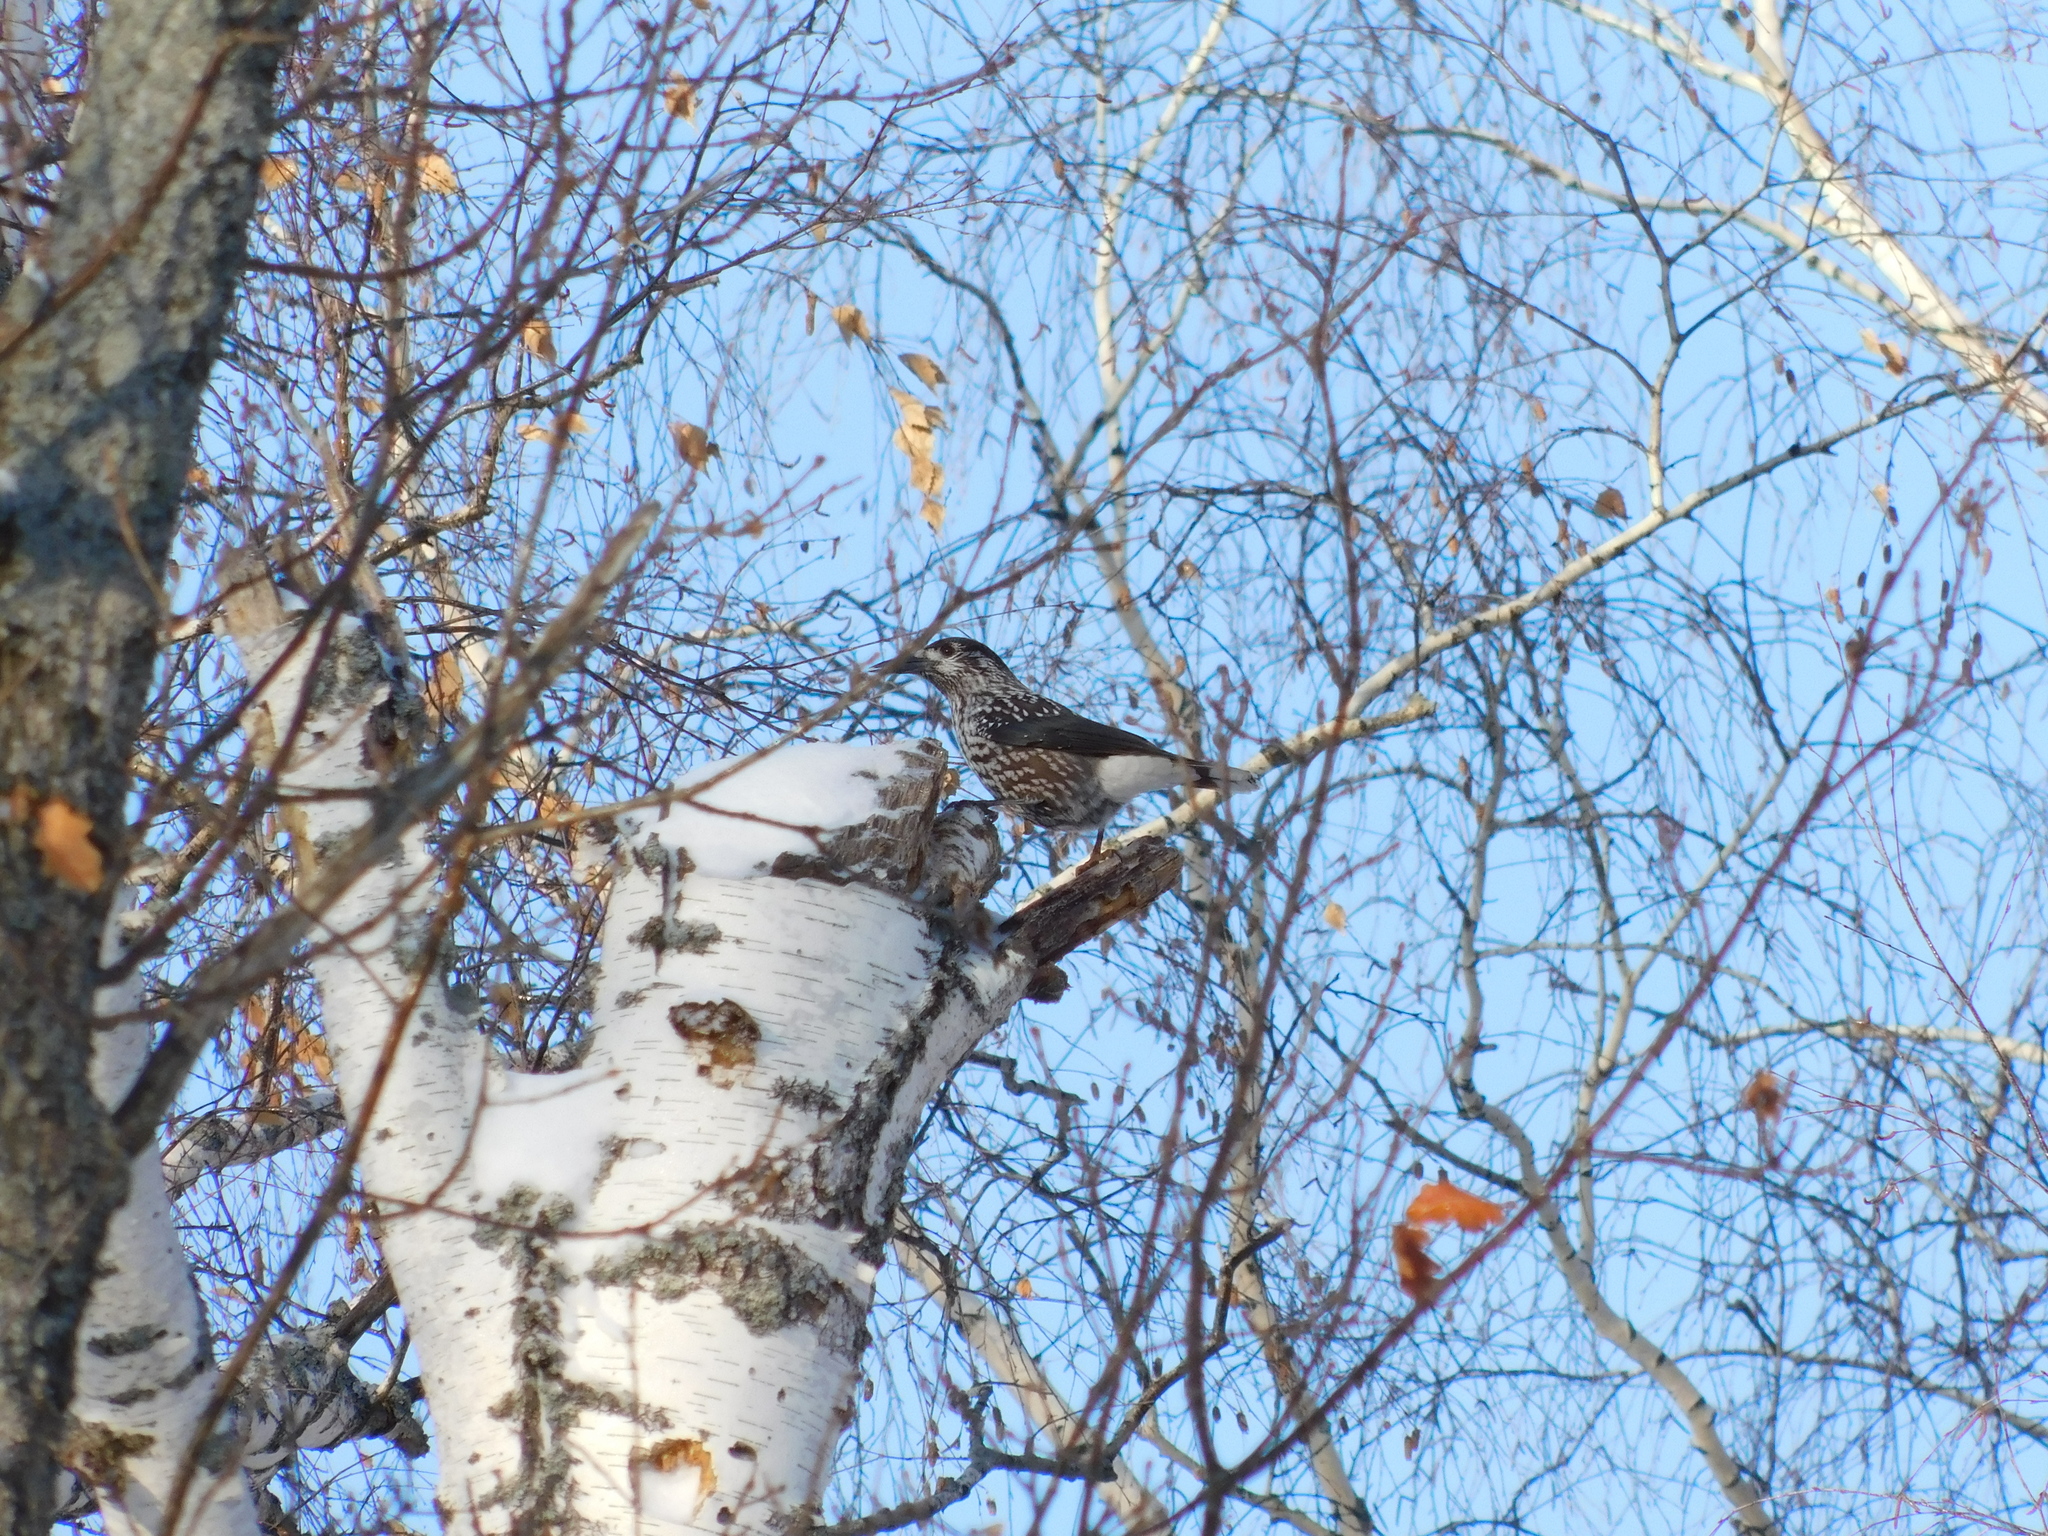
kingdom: Animalia
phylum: Chordata
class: Aves
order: Passeriformes
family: Corvidae
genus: Nucifraga
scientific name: Nucifraga caryocatactes
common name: Spotted nutcracker
